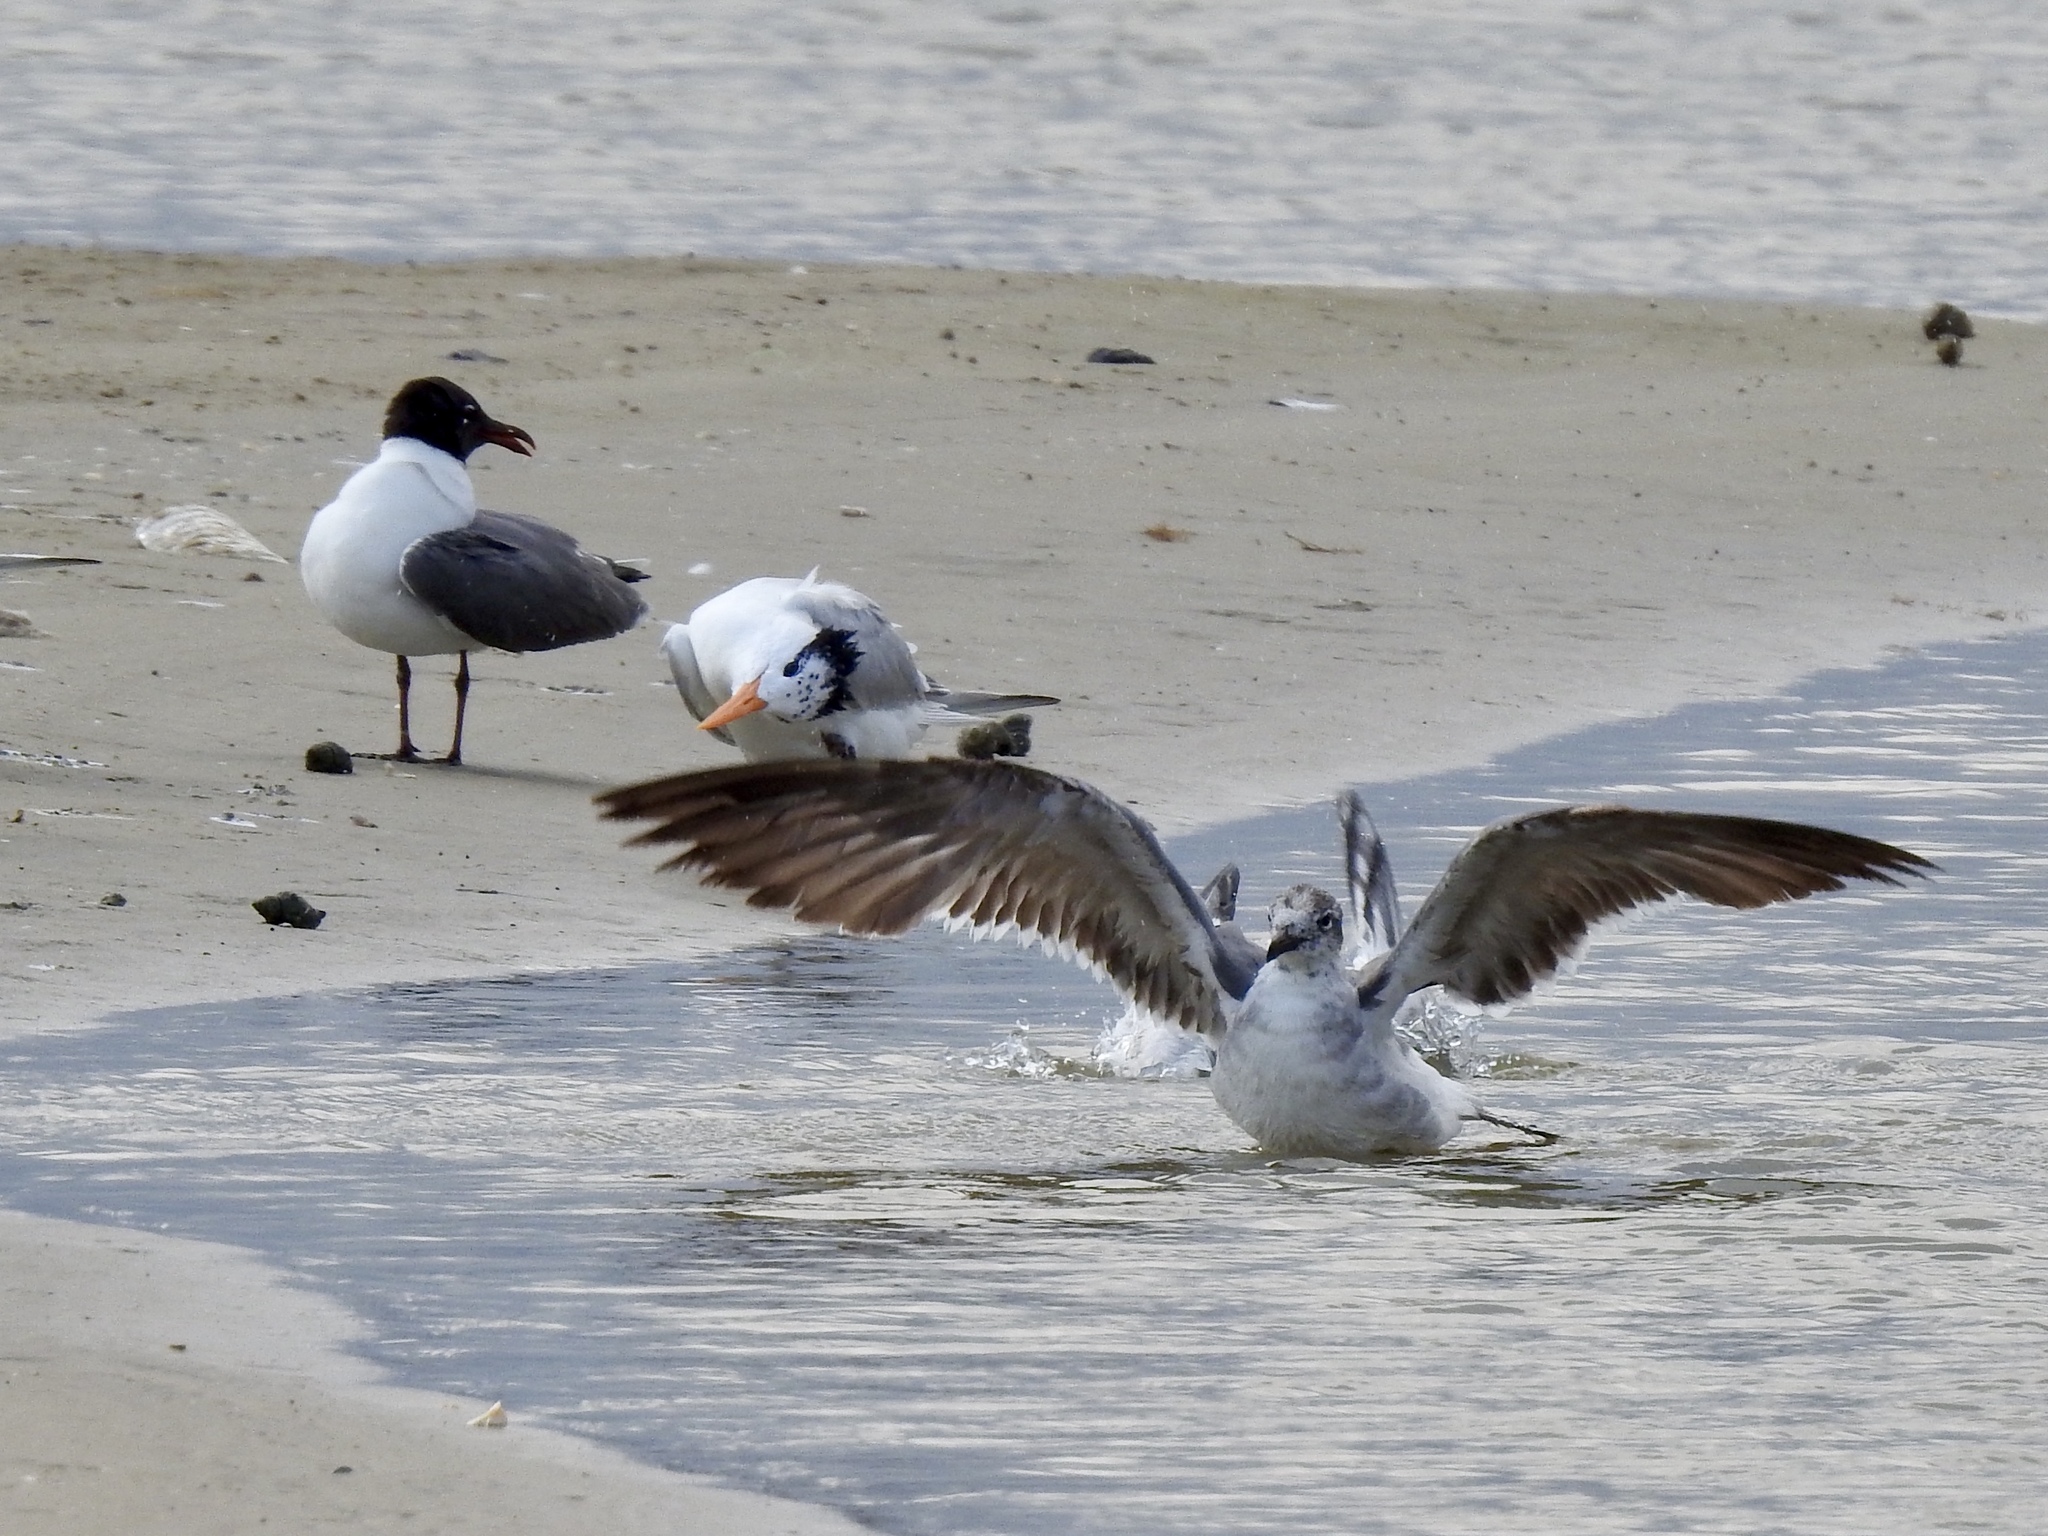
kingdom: Animalia
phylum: Chordata
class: Aves
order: Charadriiformes
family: Laridae
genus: Leucophaeus
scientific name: Leucophaeus atricilla
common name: Laughing gull
